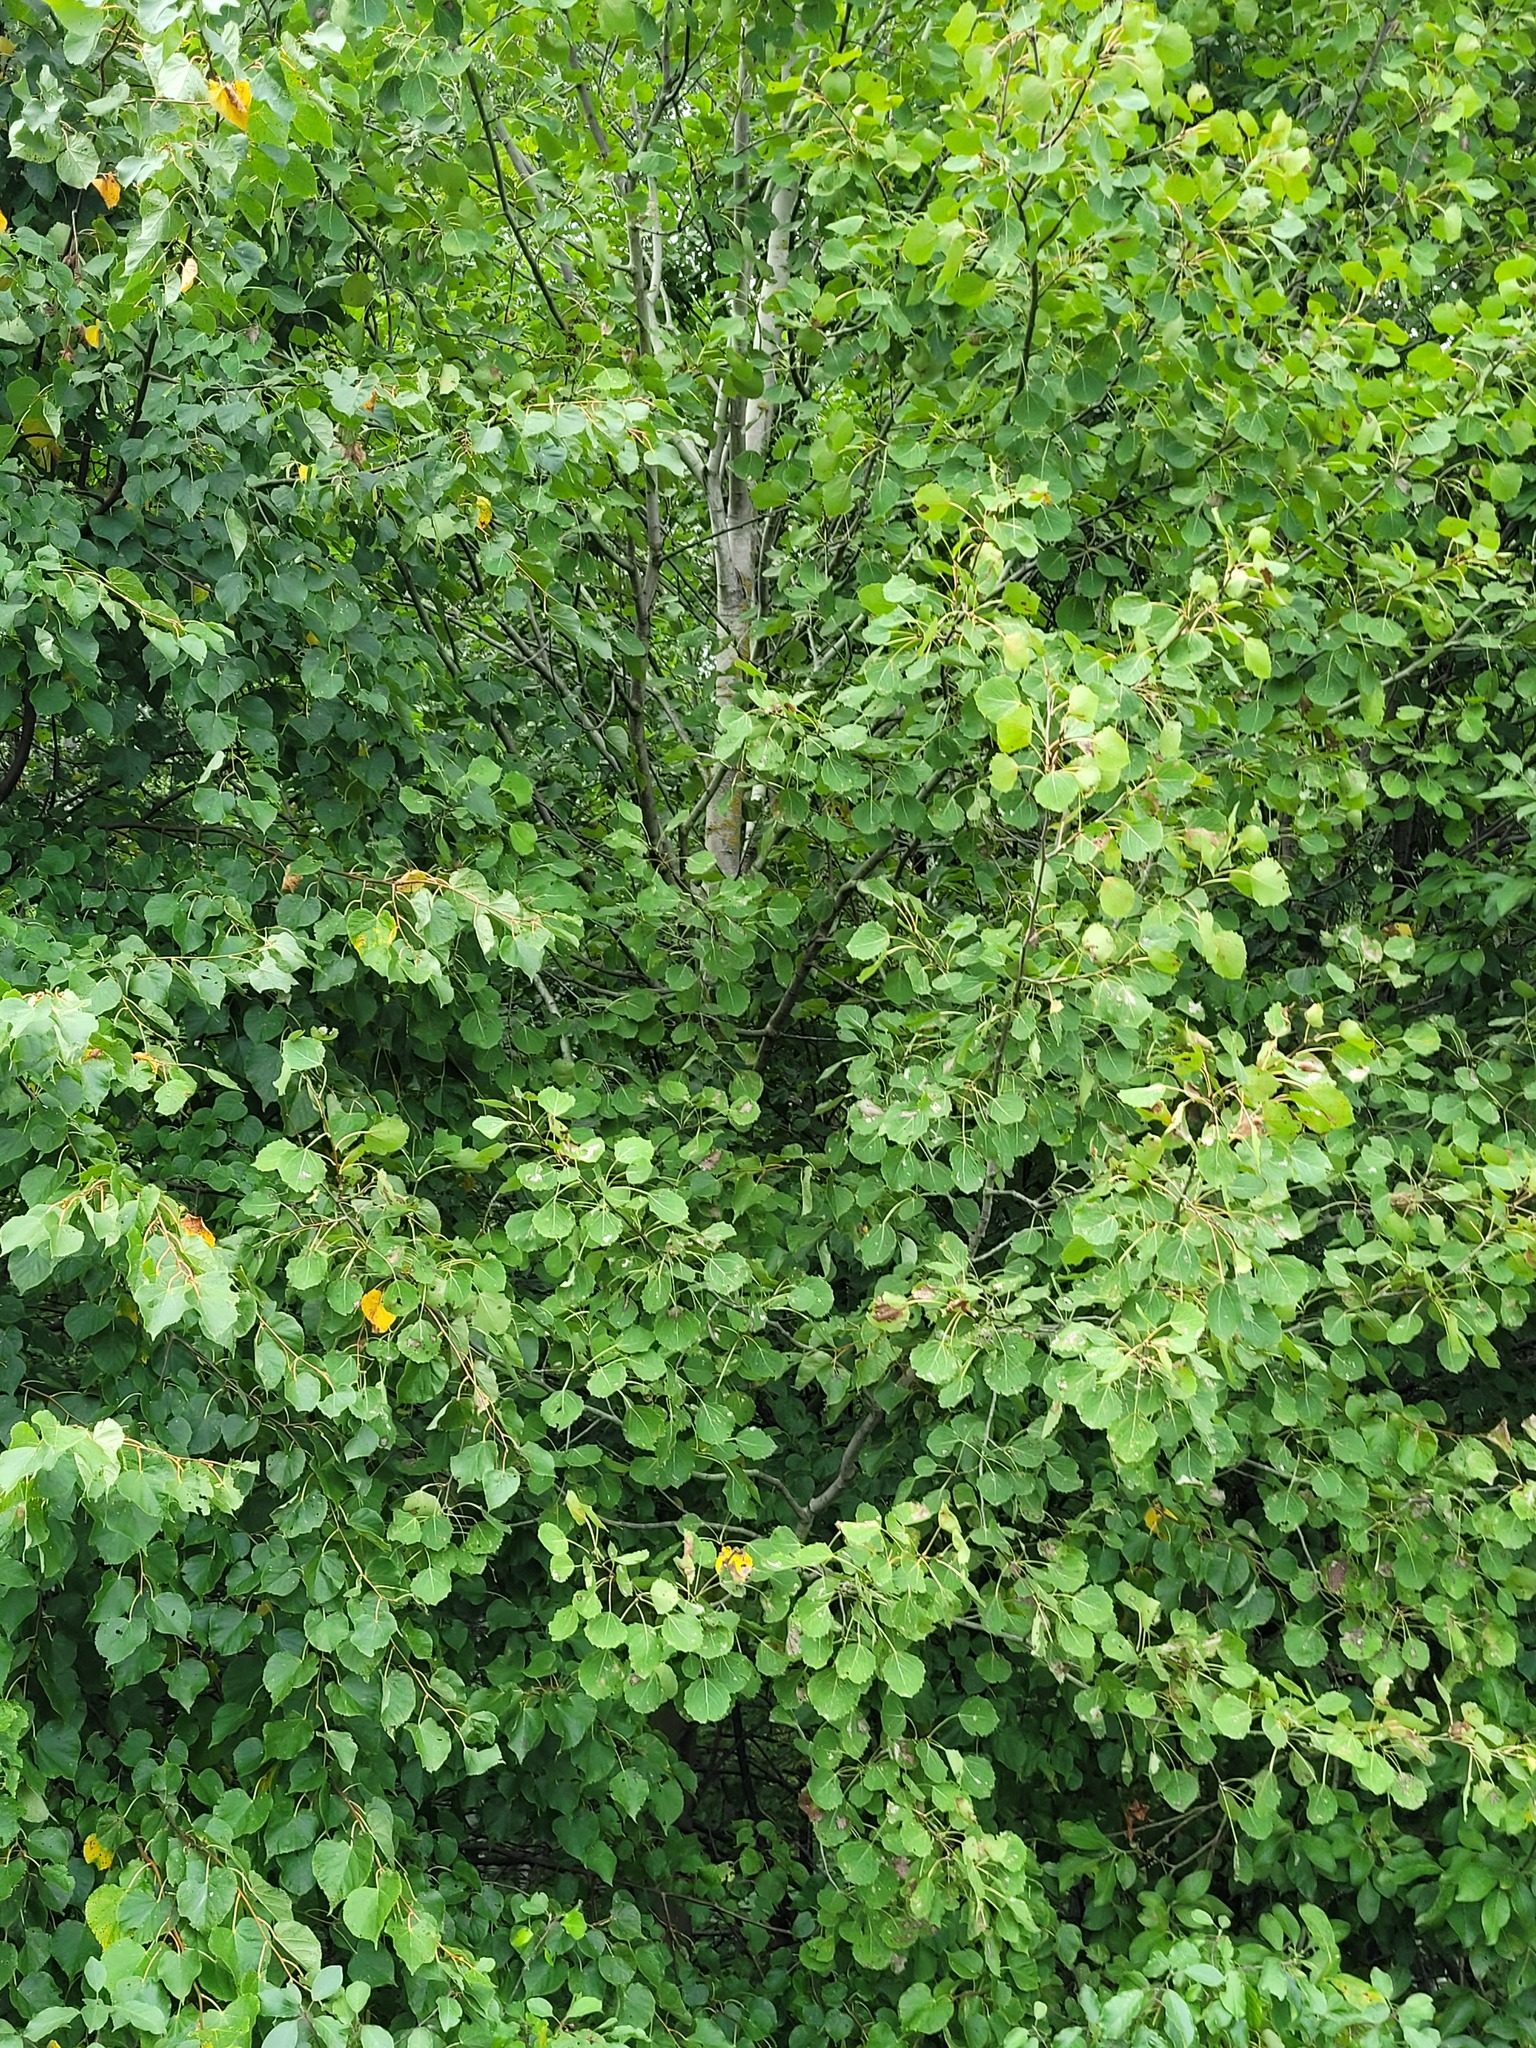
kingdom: Plantae
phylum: Tracheophyta
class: Magnoliopsida
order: Malpighiales
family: Salicaceae
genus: Populus
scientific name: Populus tremula
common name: European aspen
